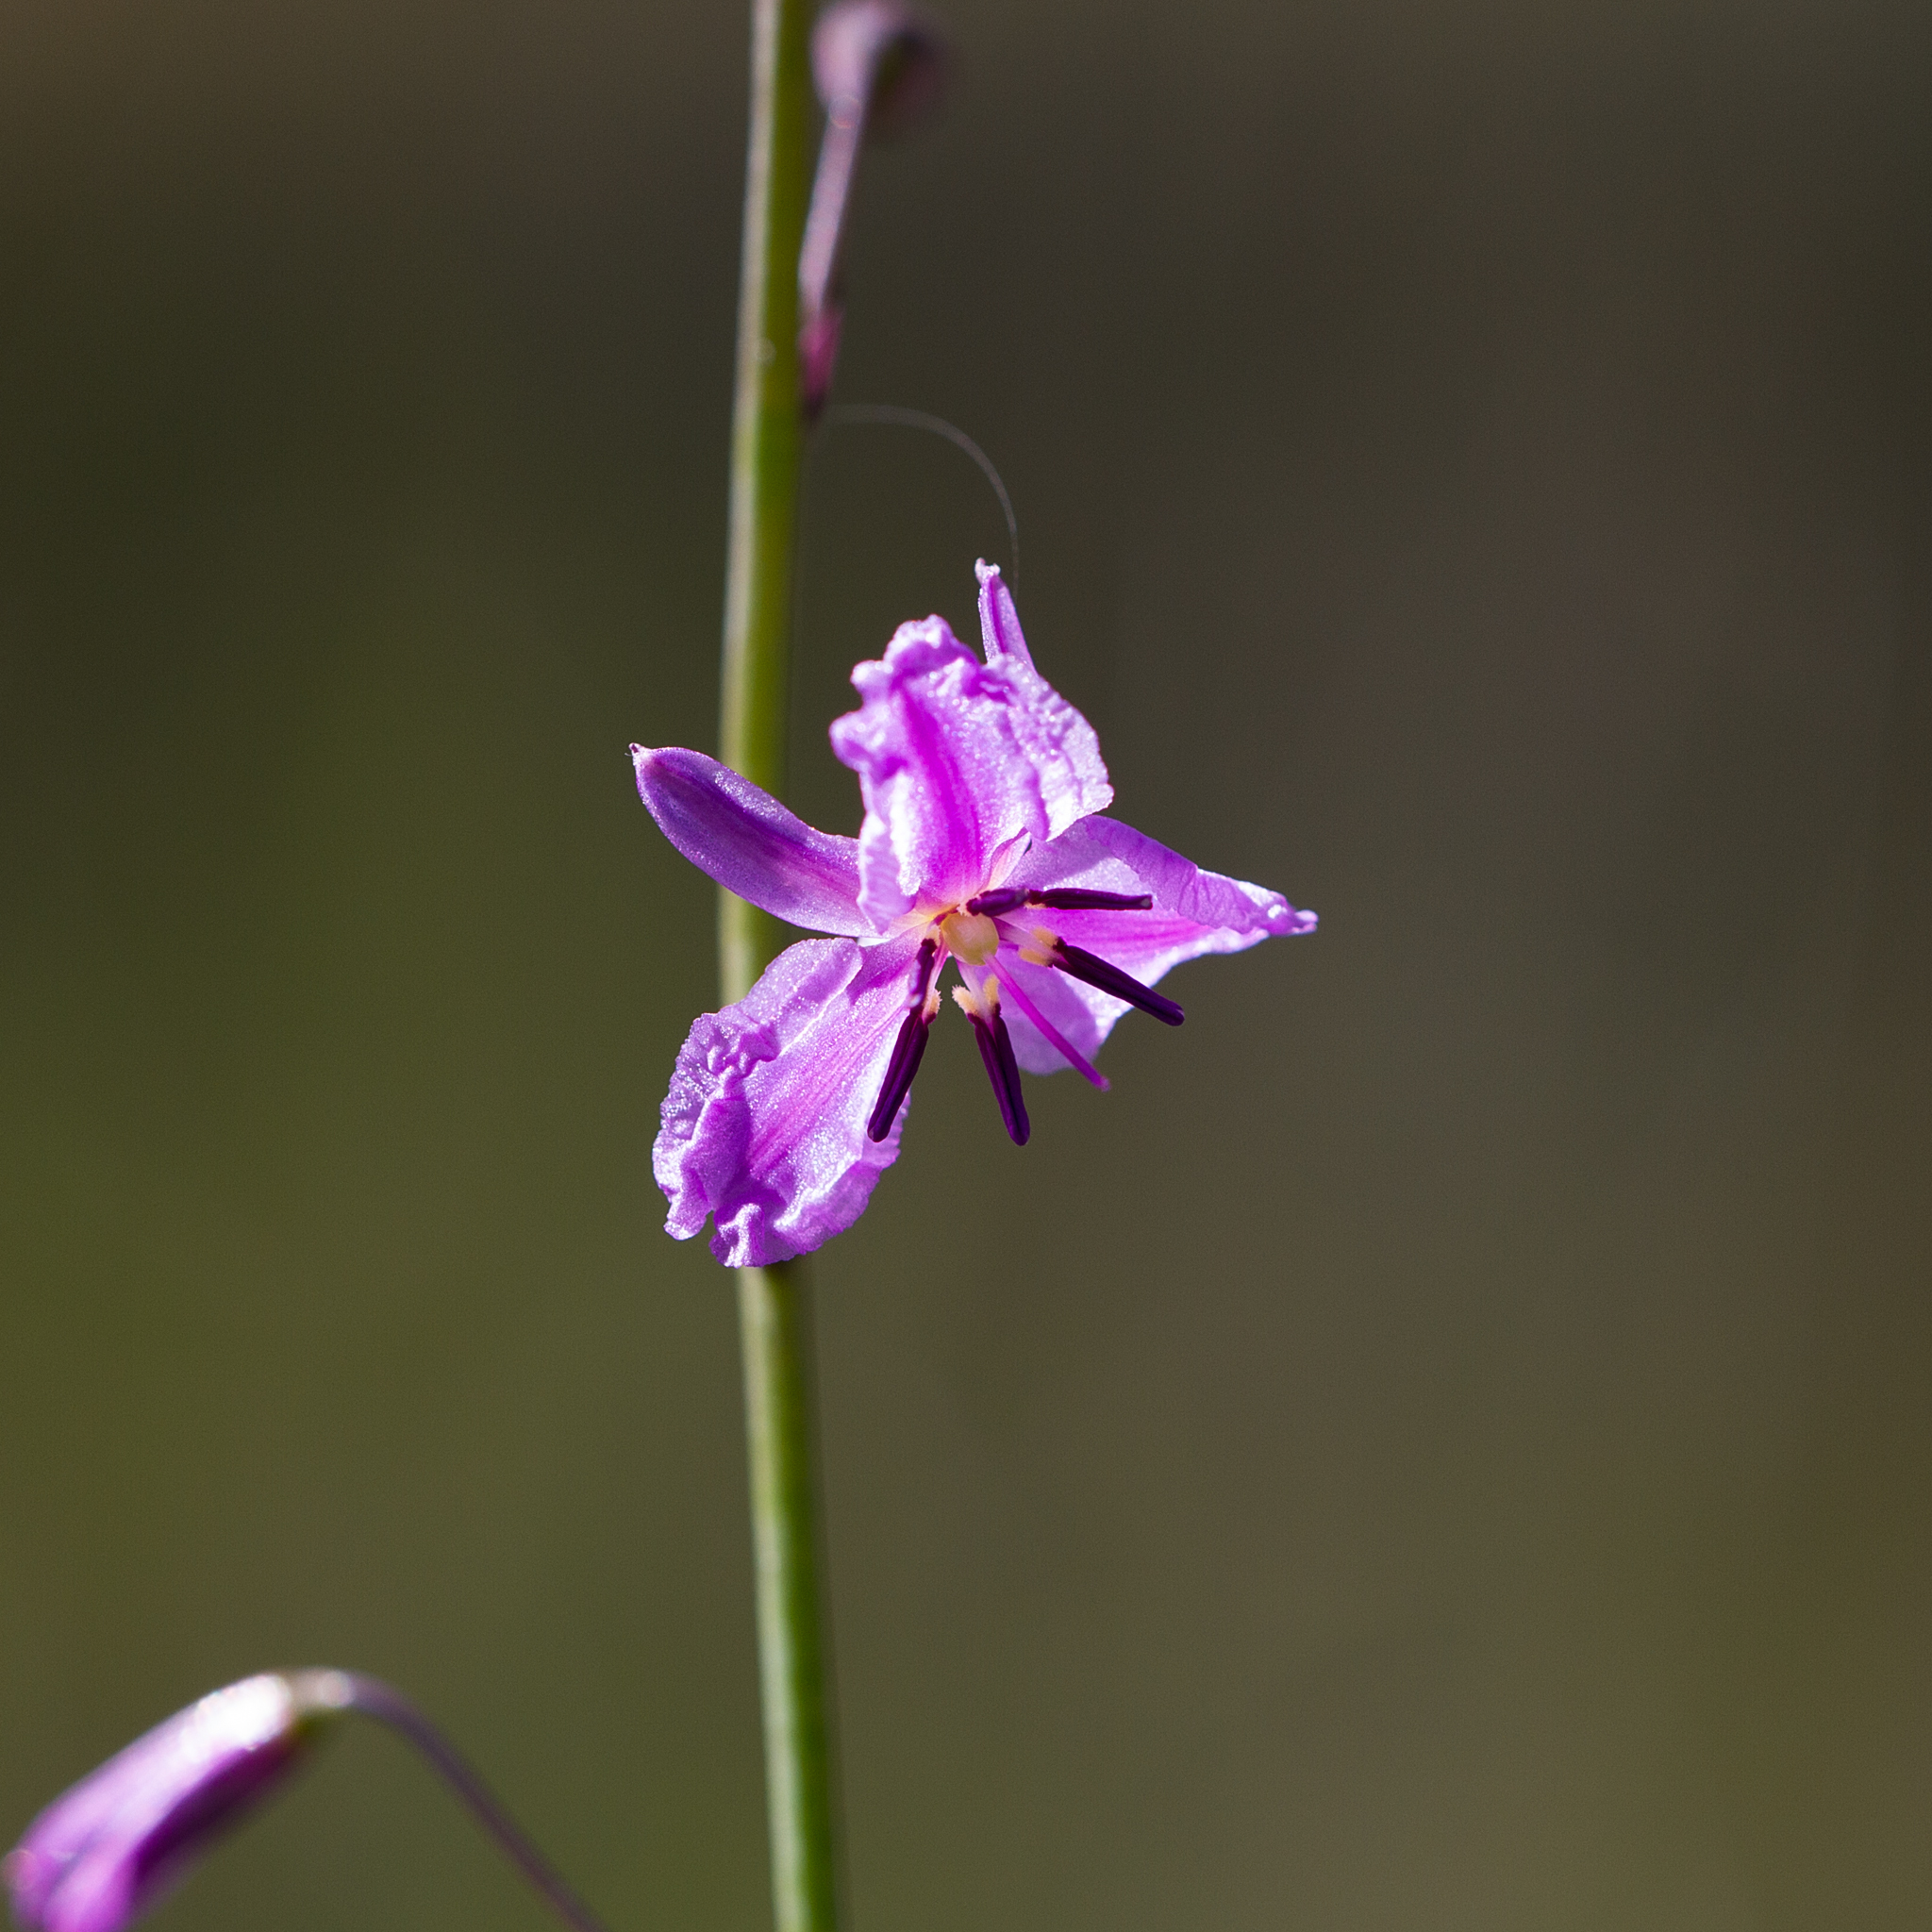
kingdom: Plantae
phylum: Tracheophyta
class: Liliopsida
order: Asparagales
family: Asparagaceae
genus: Arthropodium
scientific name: Arthropodium strictum
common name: Chocolate-lily
